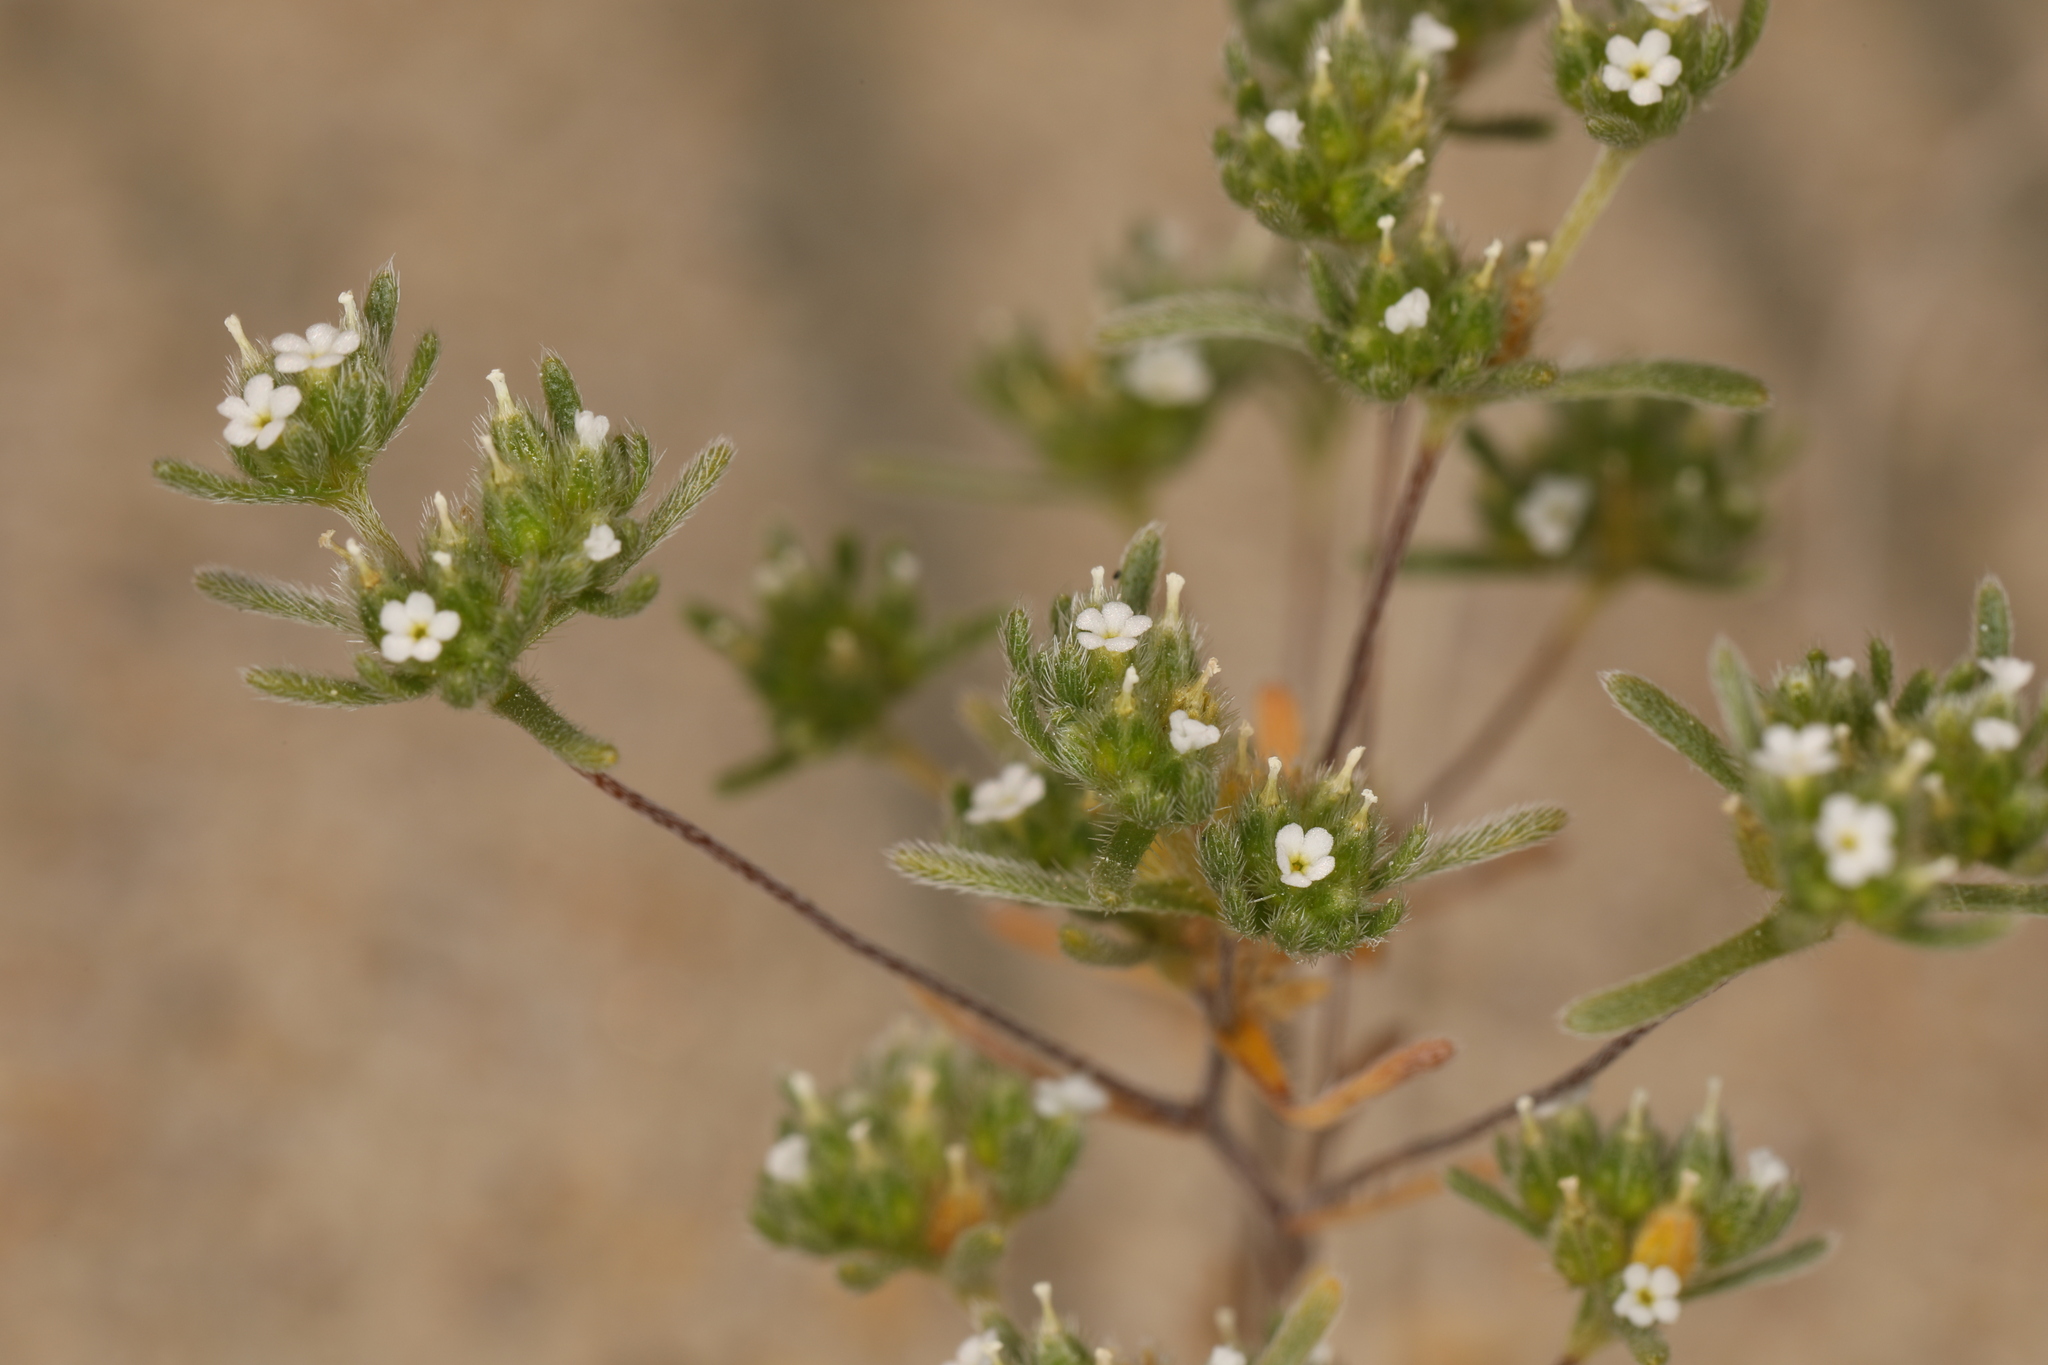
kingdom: Plantae
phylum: Tracheophyta
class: Magnoliopsida
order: Boraginales
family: Boraginaceae
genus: Eremocarya
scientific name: Eremocarya micrantha
